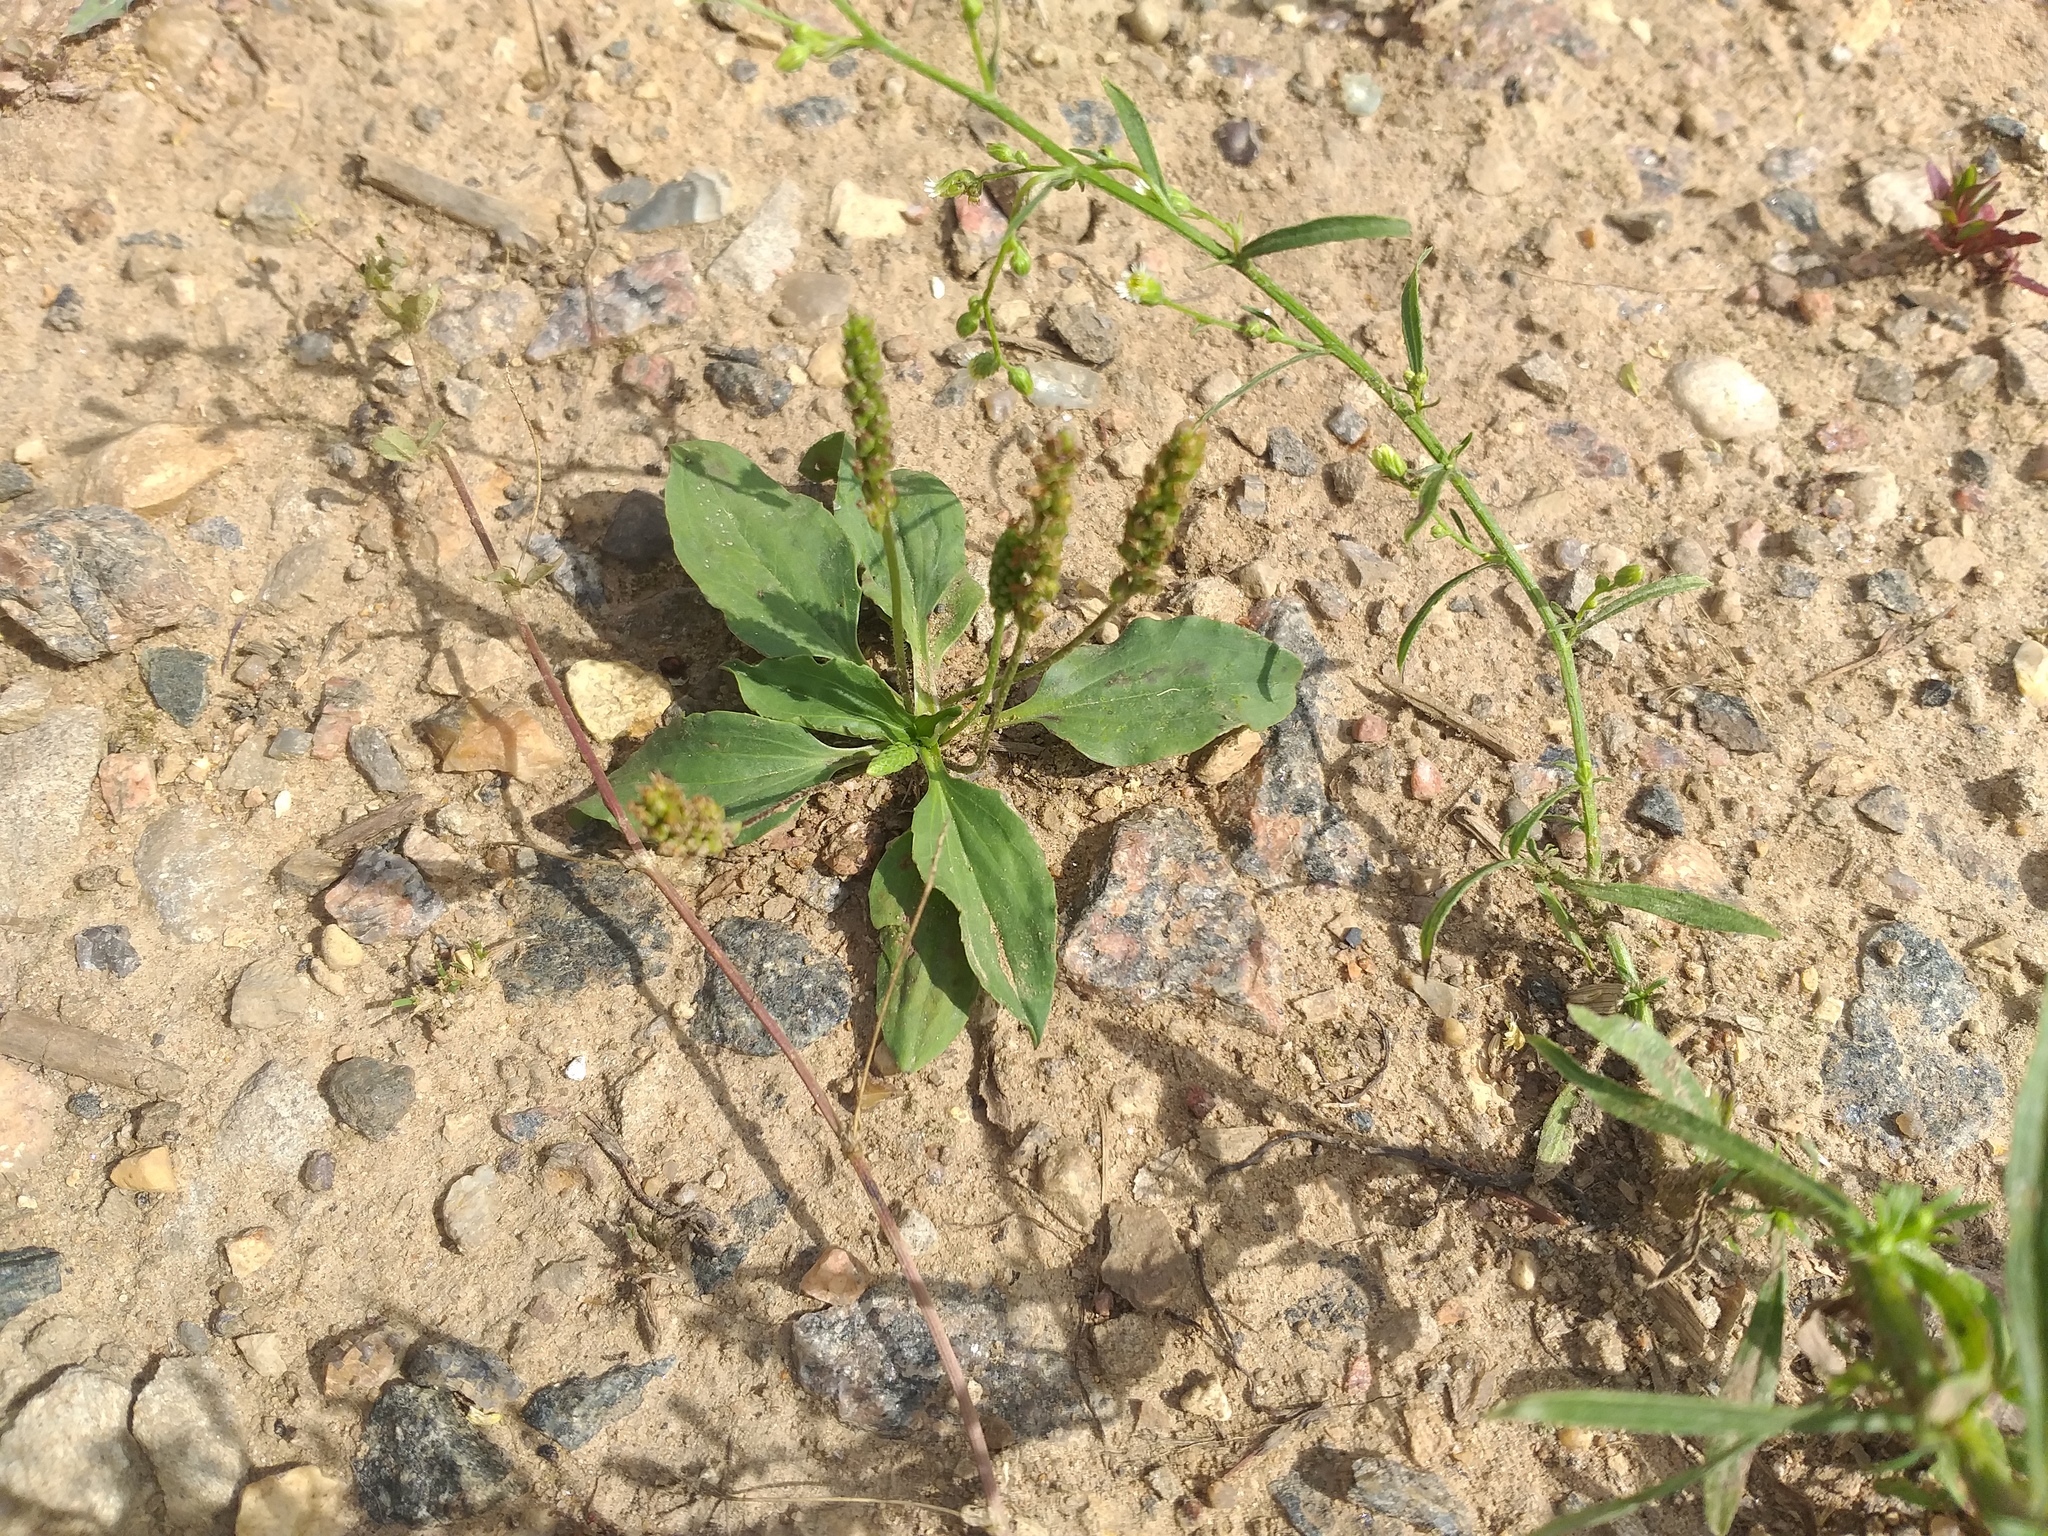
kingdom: Plantae
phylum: Tracheophyta
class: Magnoliopsida
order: Lamiales
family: Plantaginaceae
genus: Plantago
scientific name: Plantago uliginosa
